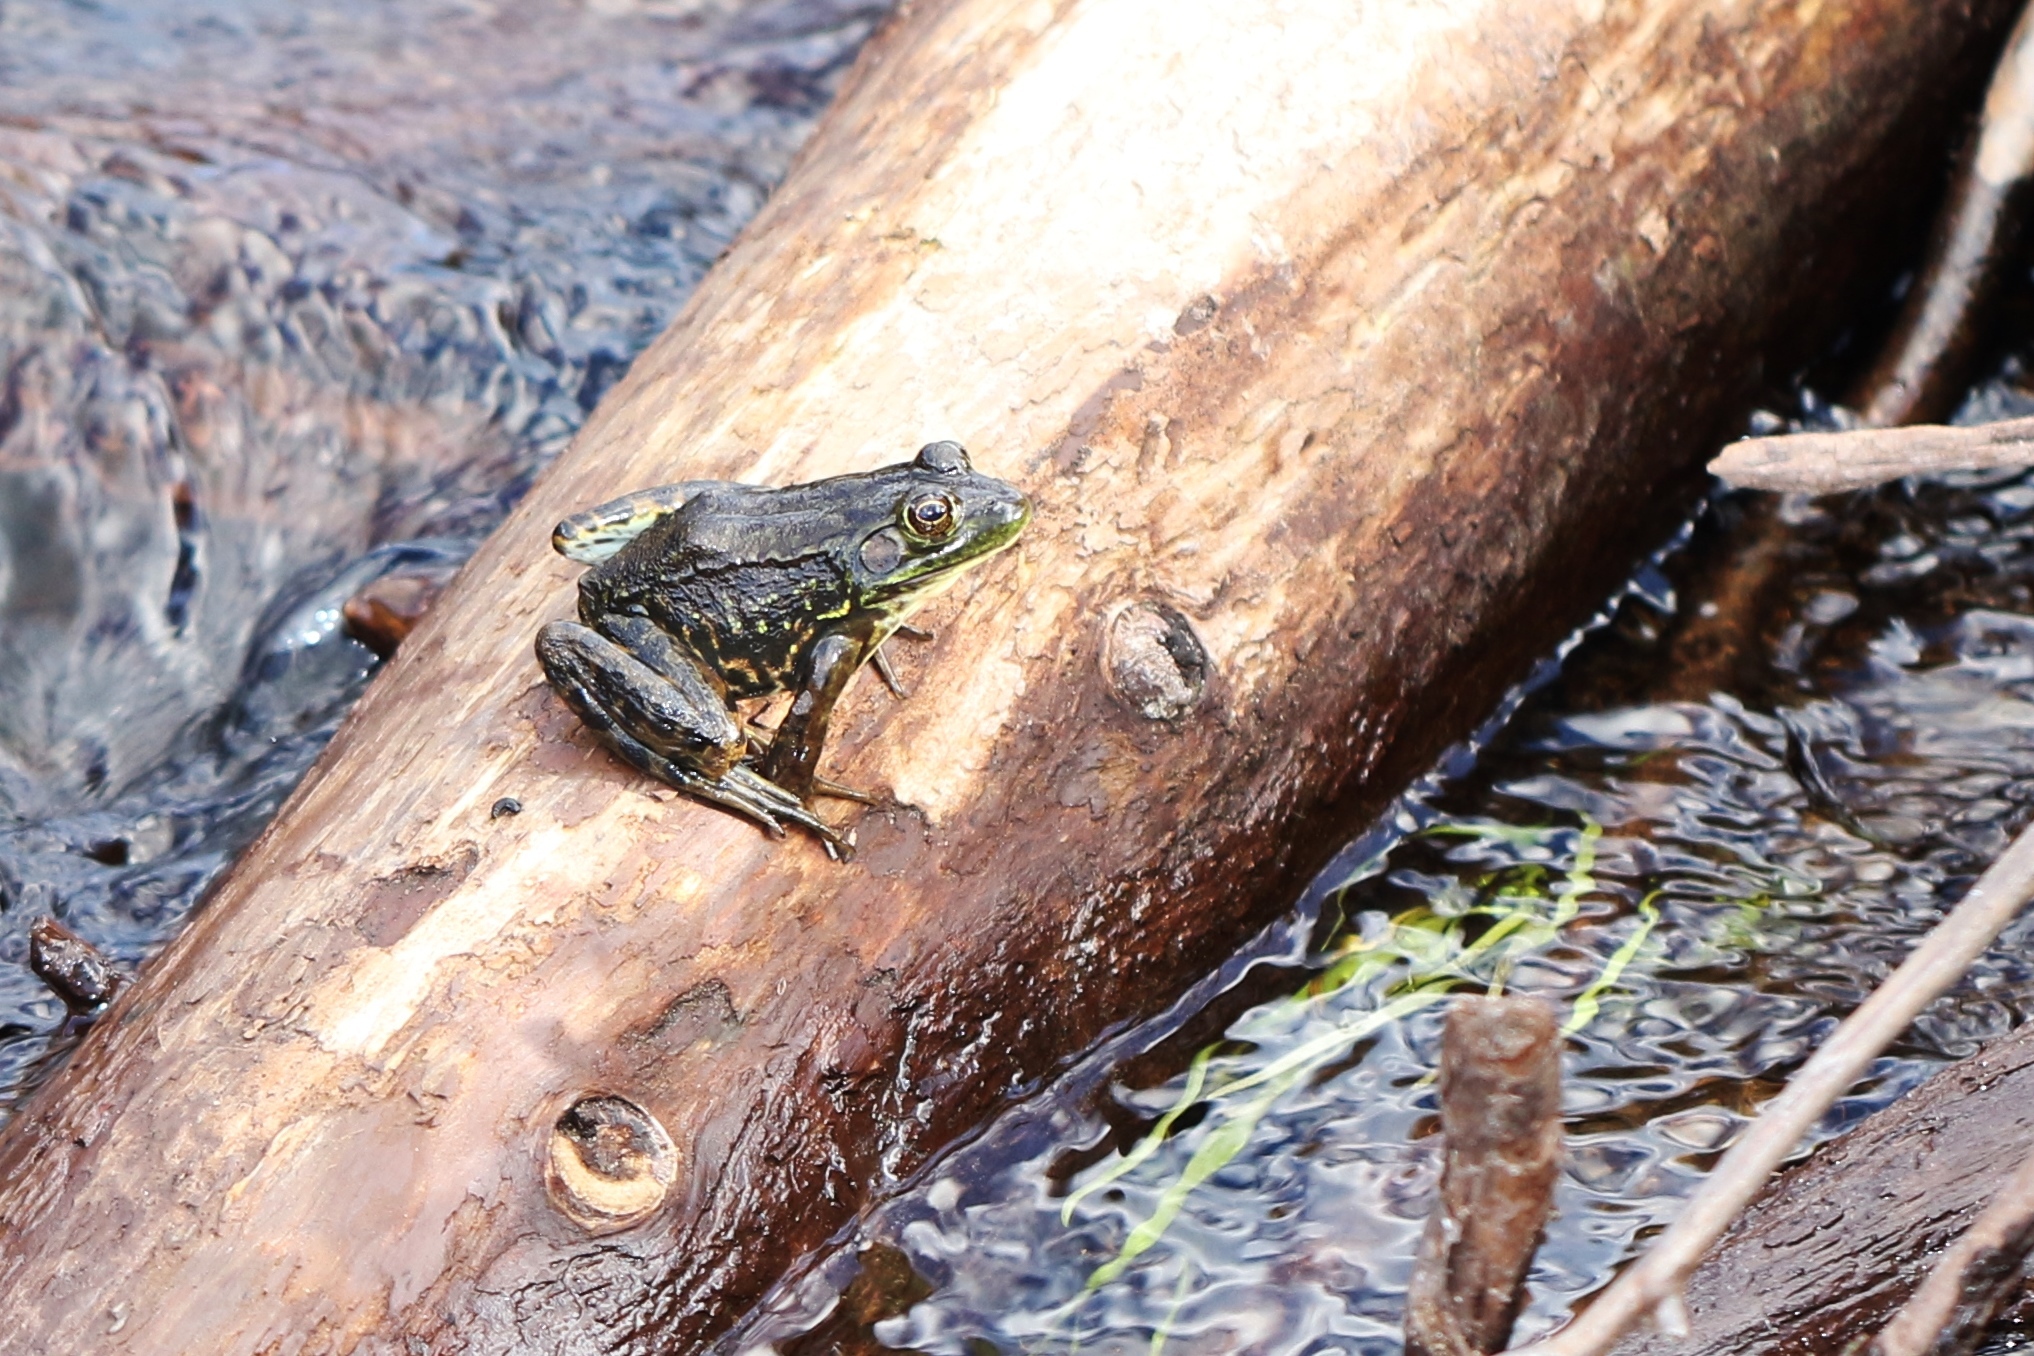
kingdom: Animalia
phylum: Chordata
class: Amphibia
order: Anura
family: Ranidae
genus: Lithobates
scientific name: Lithobates septentrionalis
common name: Mink frog
